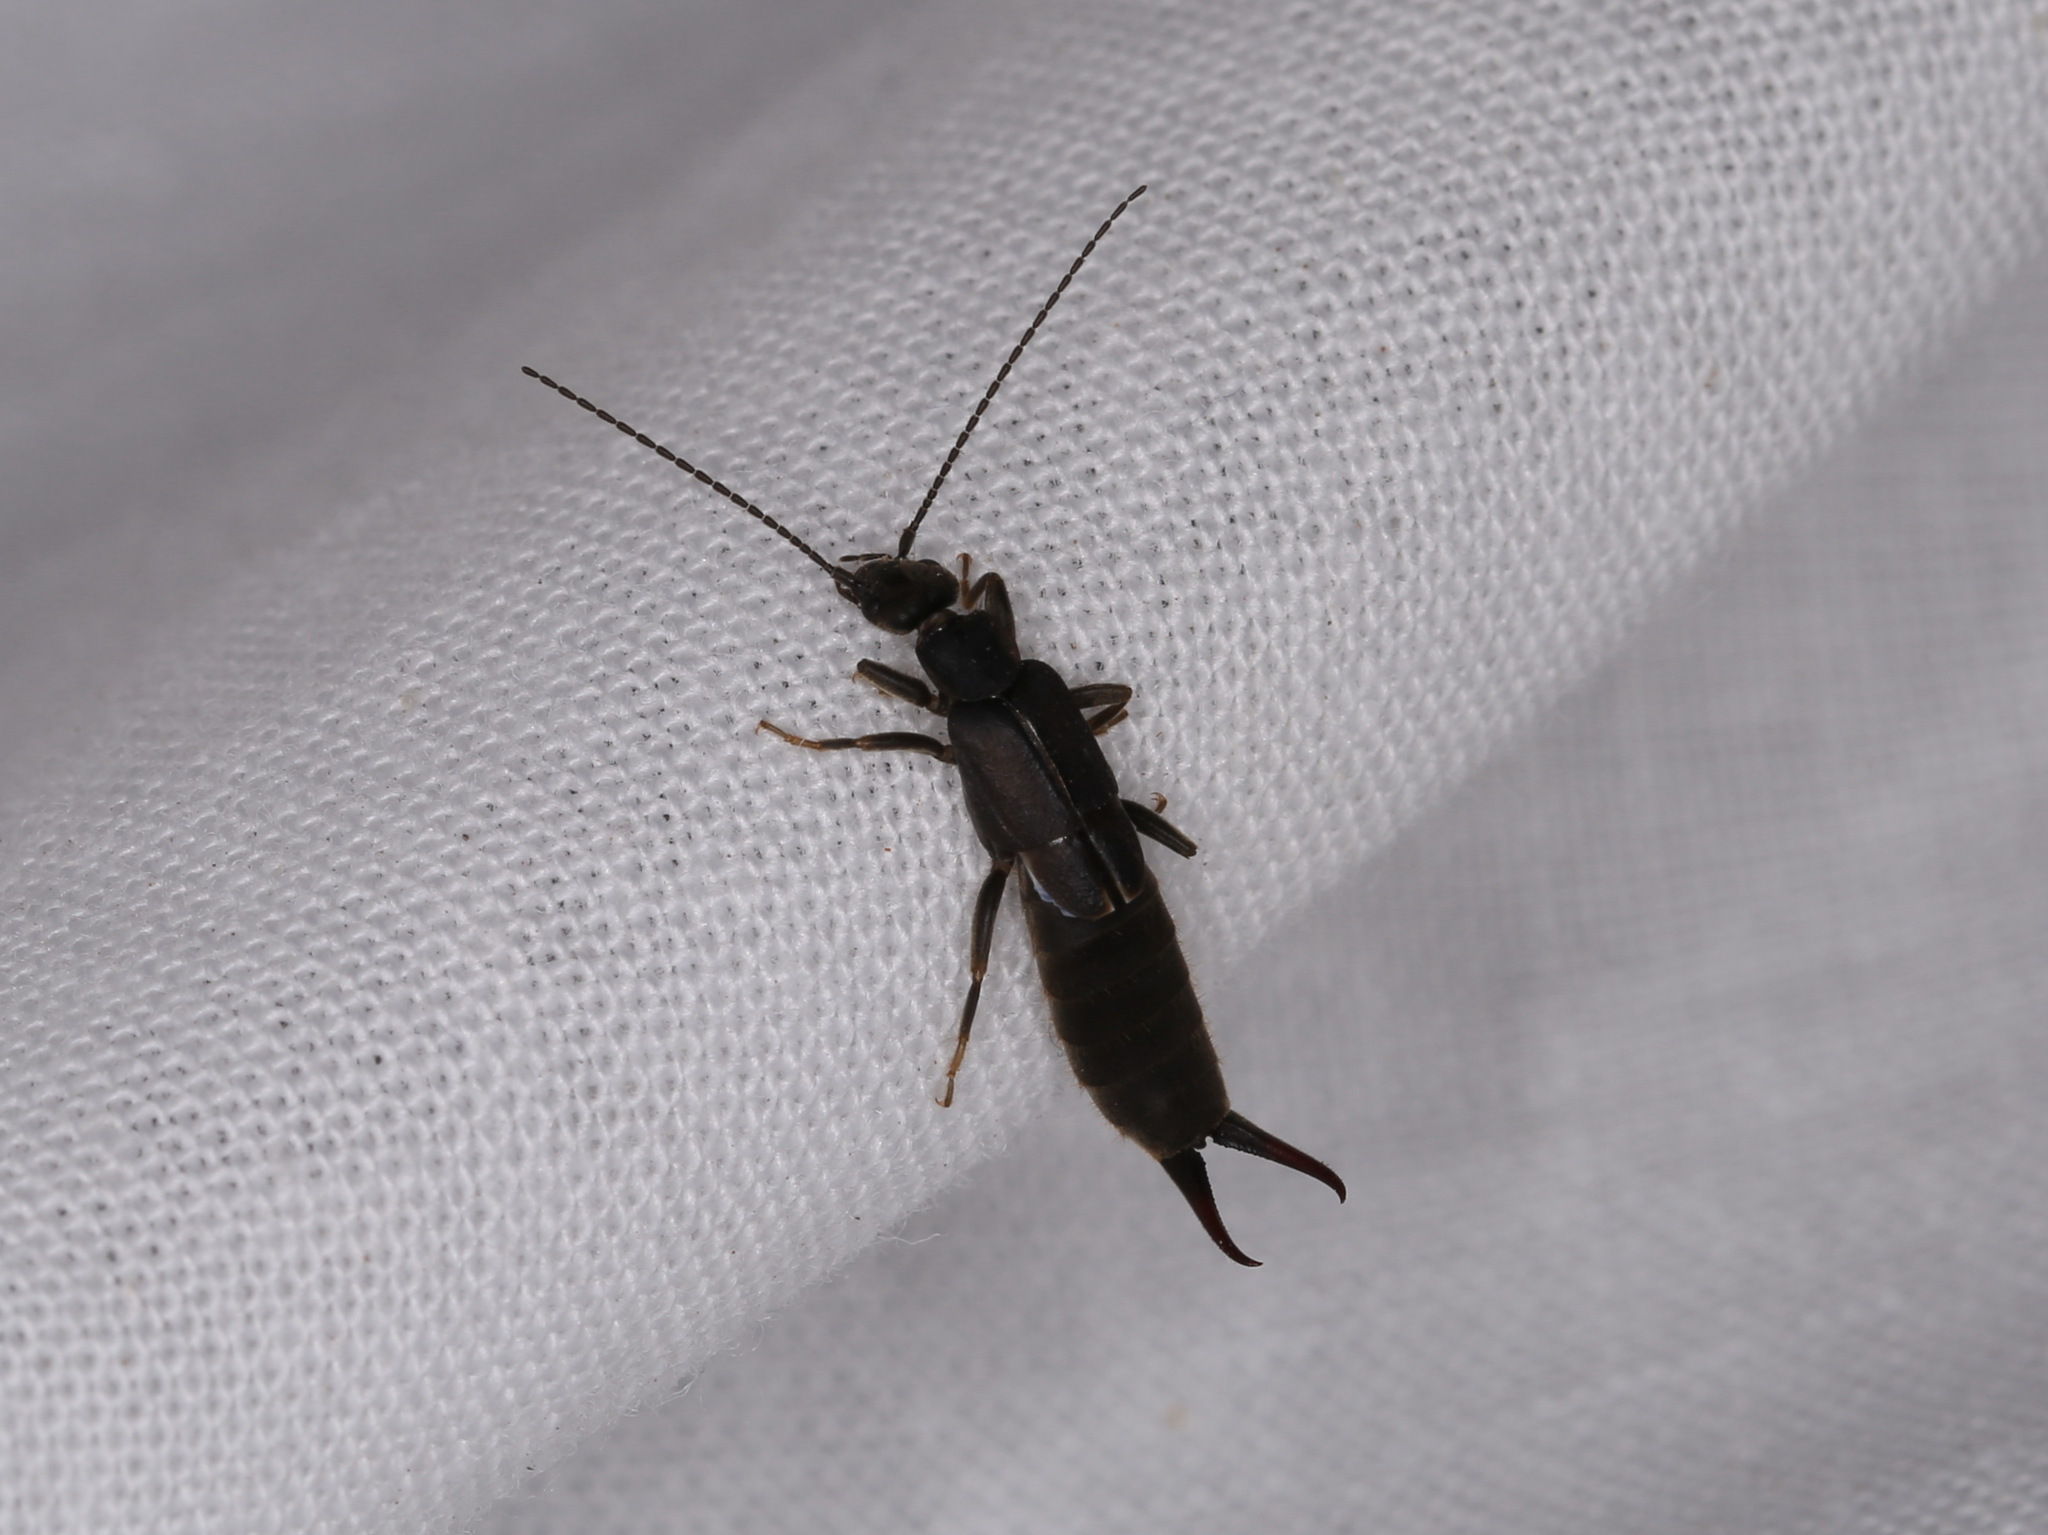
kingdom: Animalia
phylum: Arthropoda
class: Insecta
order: Dermaptera
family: Labiduridae
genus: Nala
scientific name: Nala lividipes
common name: Earwig
